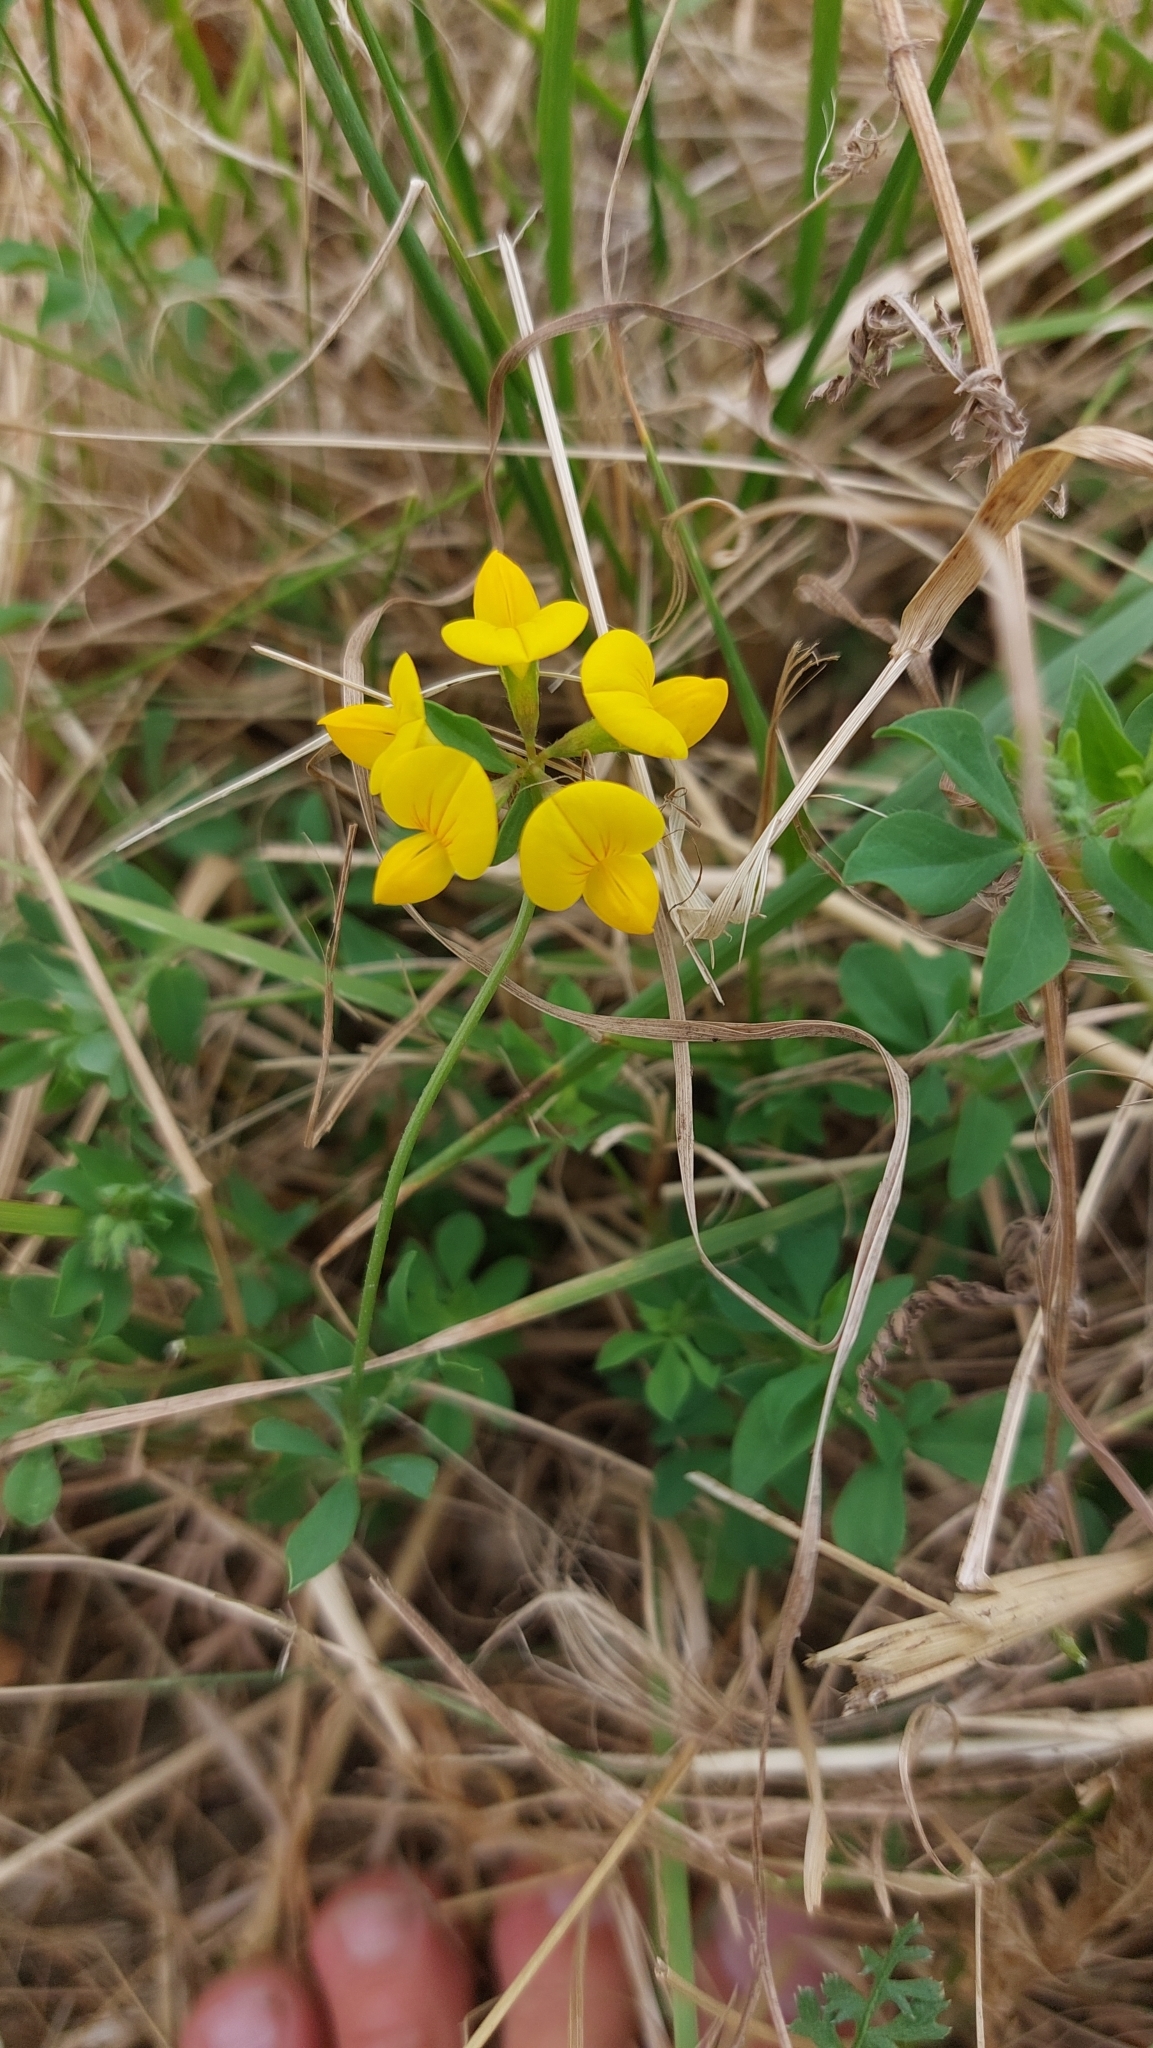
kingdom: Plantae
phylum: Tracheophyta
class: Magnoliopsida
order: Fabales
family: Fabaceae
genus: Lotus
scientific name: Lotus corniculatus
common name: Common bird's-foot-trefoil
